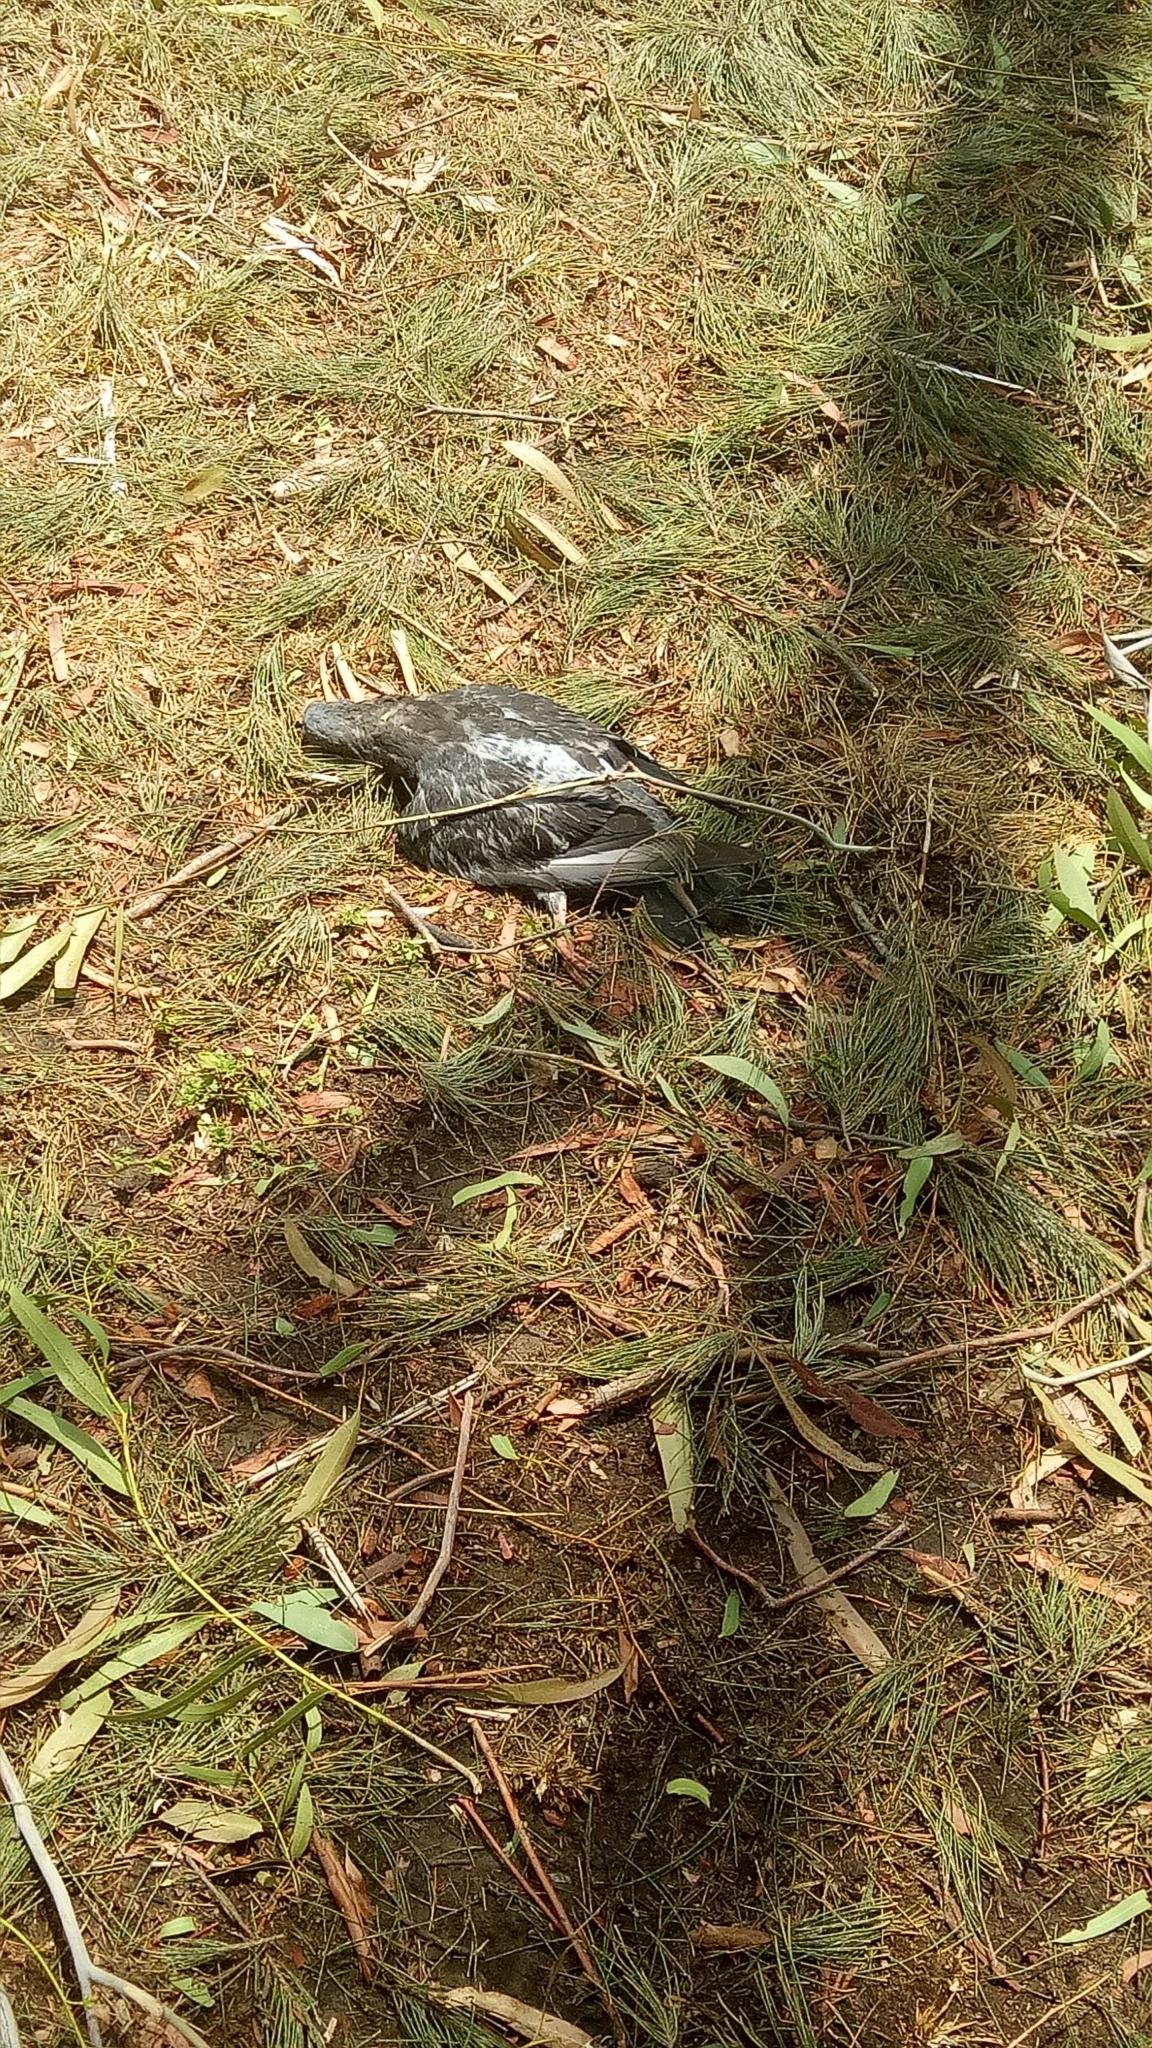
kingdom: Animalia
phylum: Chordata
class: Aves
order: Columbiformes
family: Columbidae
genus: Columba
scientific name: Columba livia
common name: Rock pigeon
